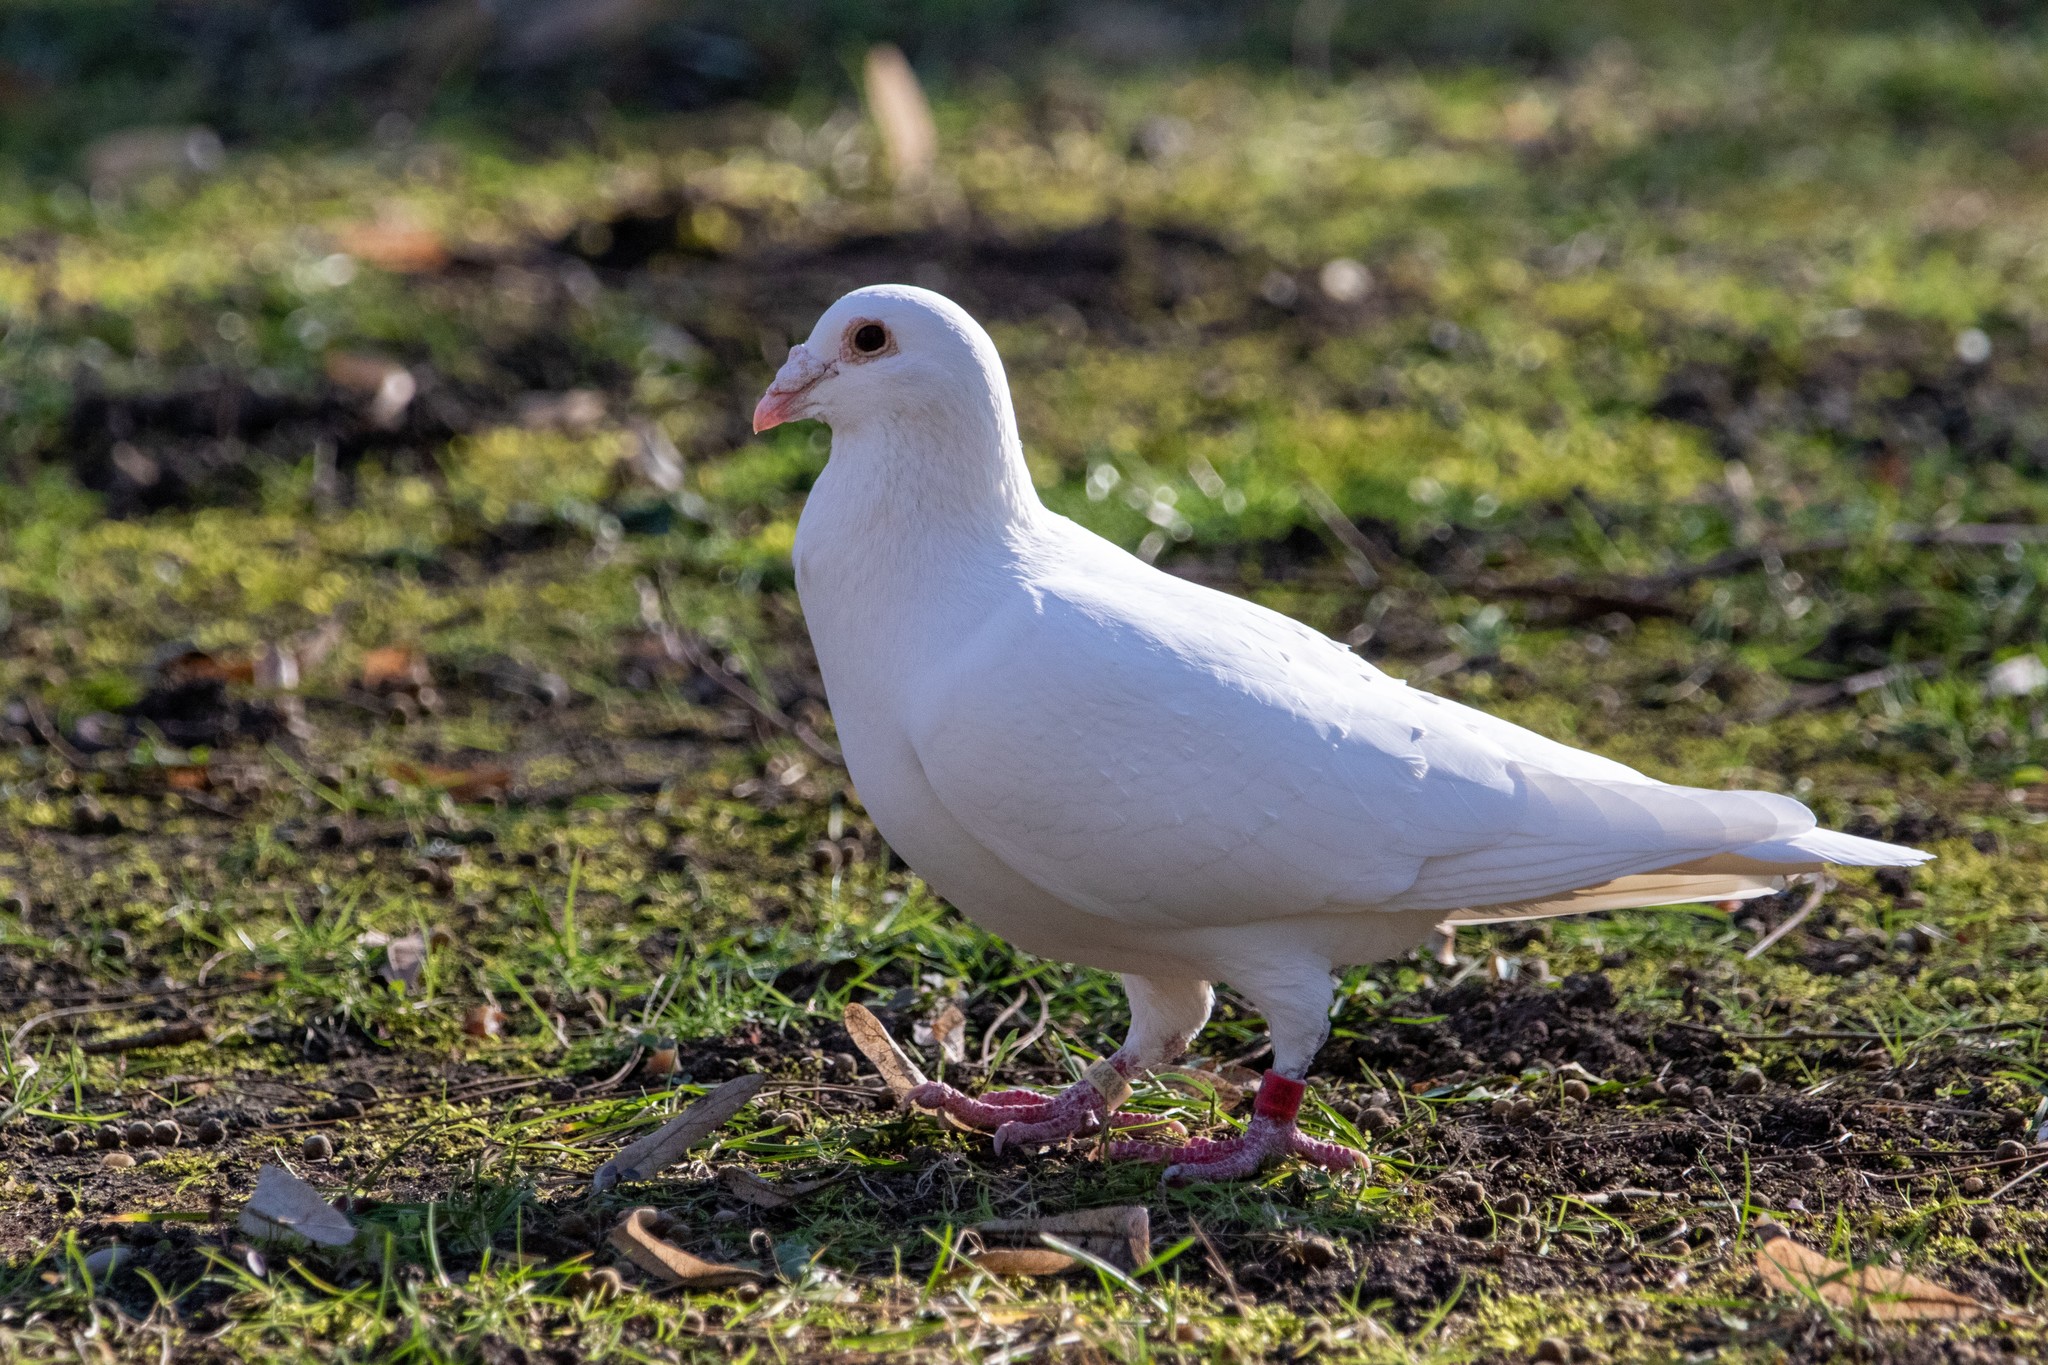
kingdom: Animalia
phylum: Chordata
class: Aves
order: Columbiformes
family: Columbidae
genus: Columba
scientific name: Columba livia
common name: Rock pigeon
